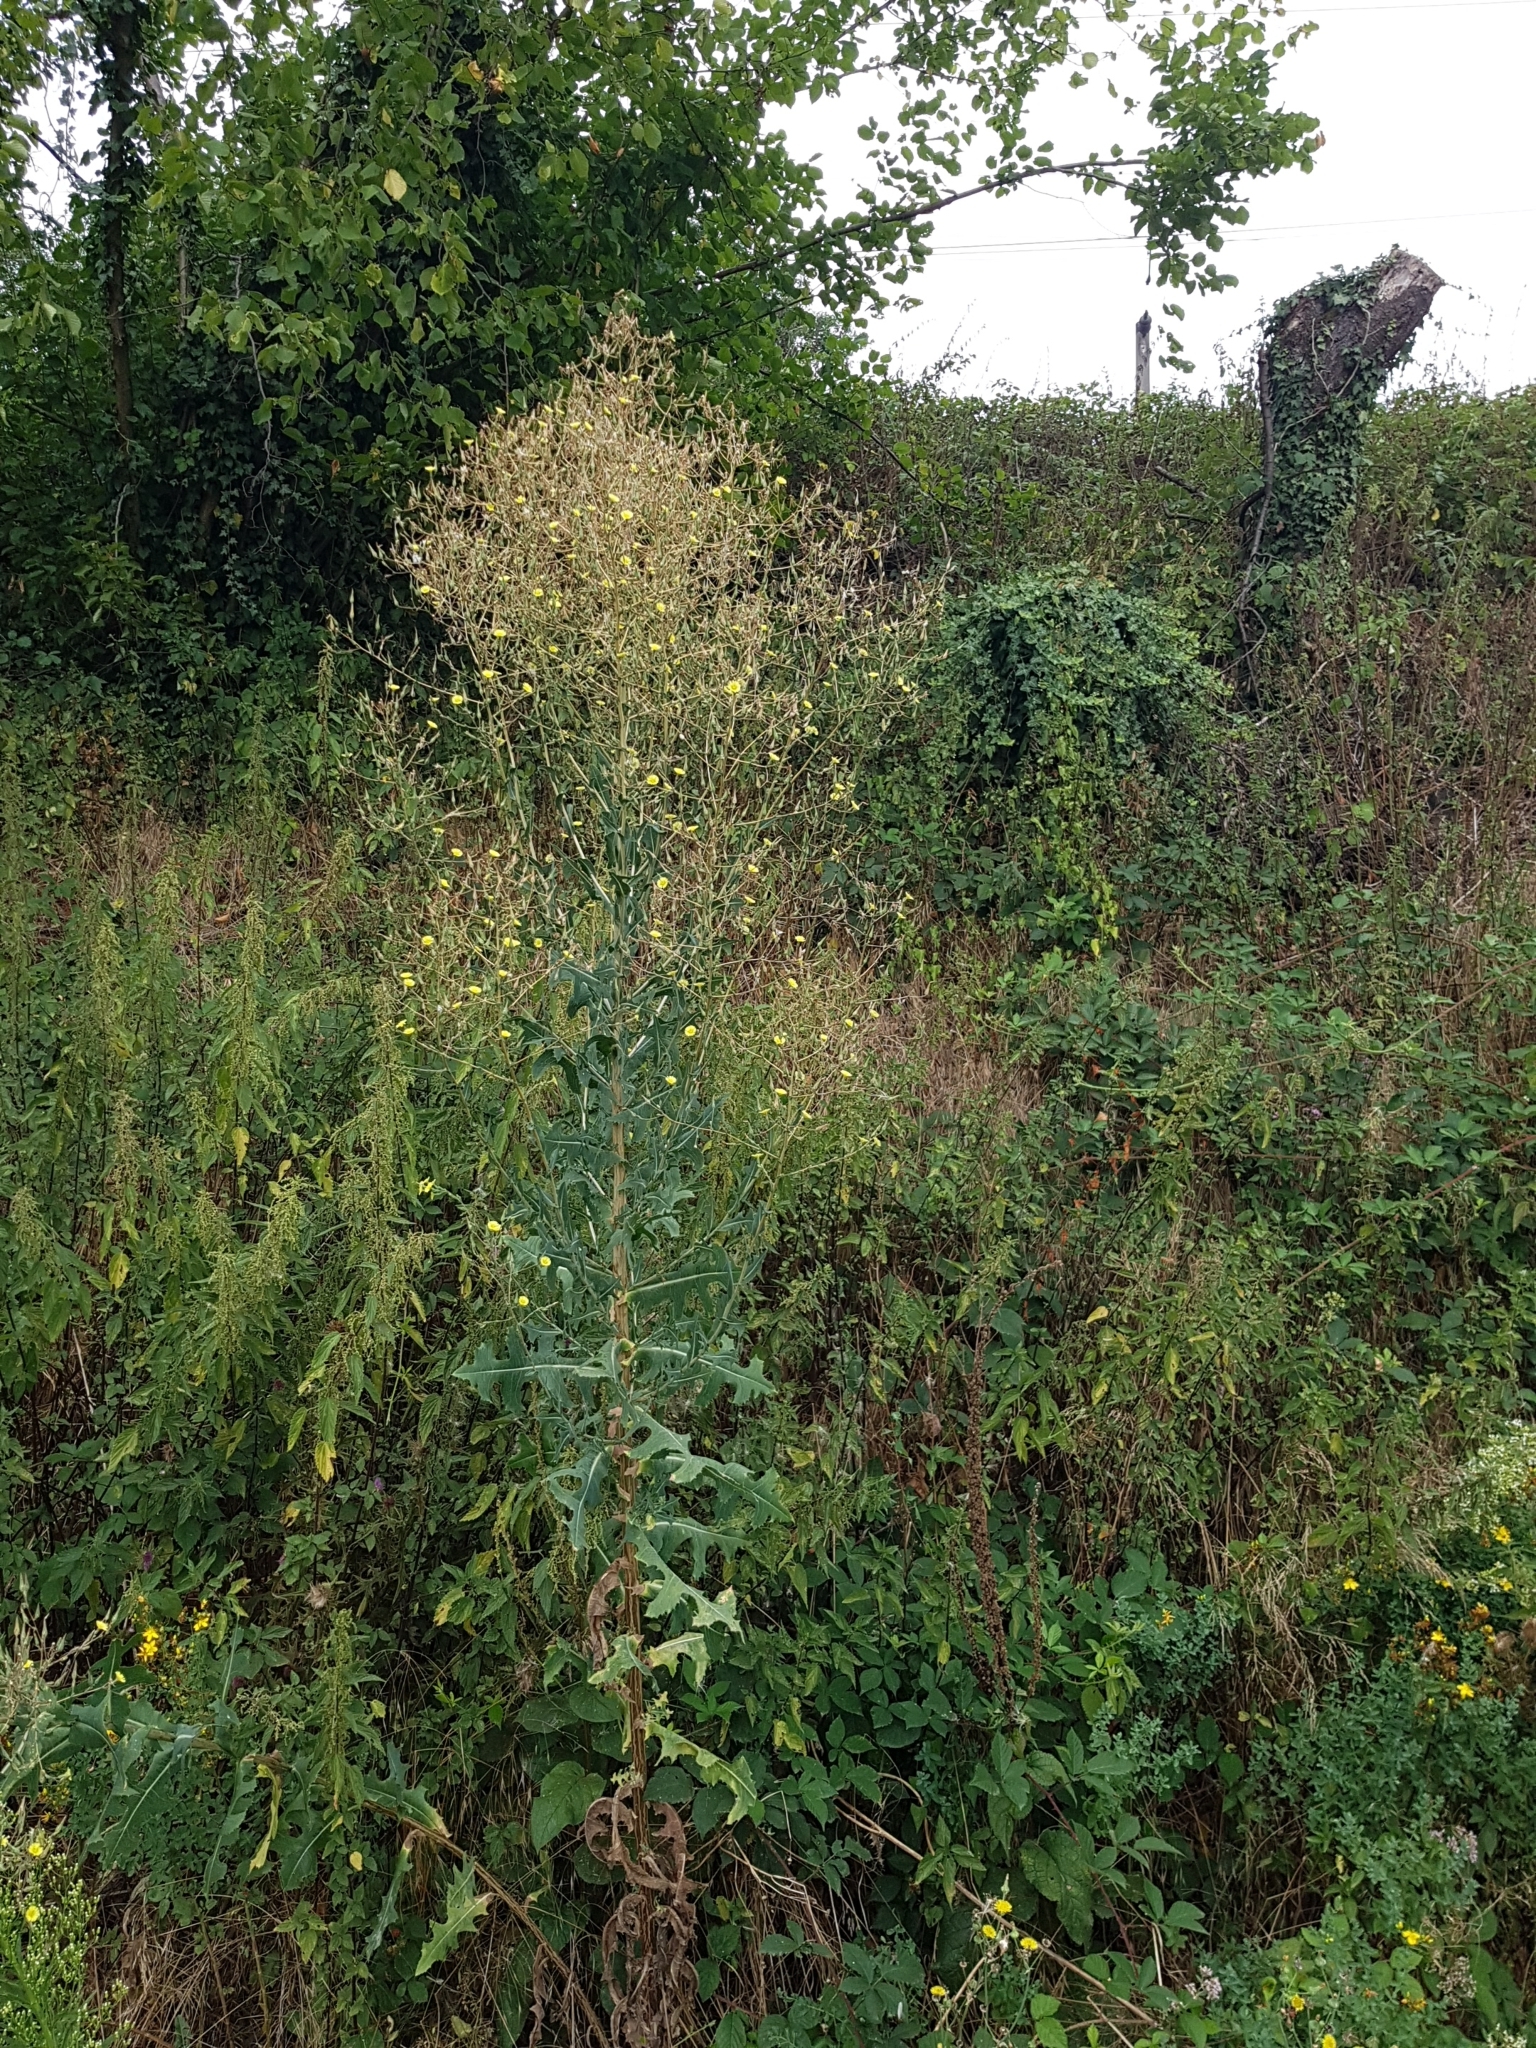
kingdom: Plantae
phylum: Tracheophyta
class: Magnoliopsida
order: Asterales
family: Asteraceae
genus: Lactuca
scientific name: Lactuca serriola
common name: Prickly lettuce
